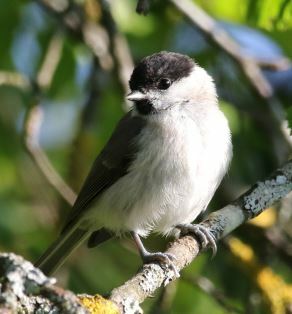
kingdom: Animalia
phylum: Chordata
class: Aves
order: Passeriformes
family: Paridae
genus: Poecile
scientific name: Poecile palustris
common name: Marsh tit
